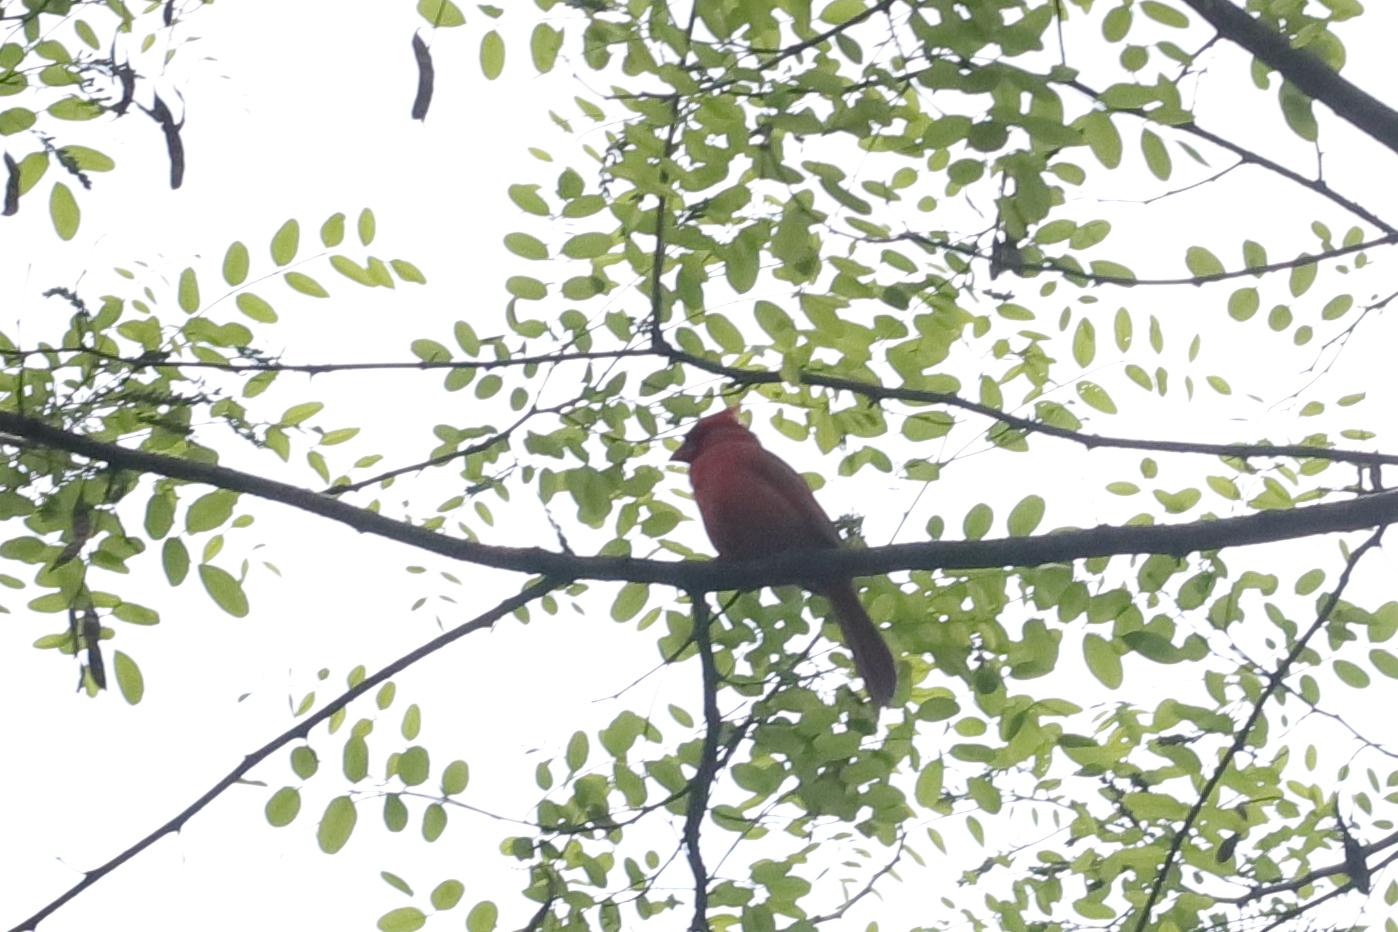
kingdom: Animalia
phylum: Chordata
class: Aves
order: Passeriformes
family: Cardinalidae
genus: Cardinalis
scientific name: Cardinalis cardinalis
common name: Northern cardinal
